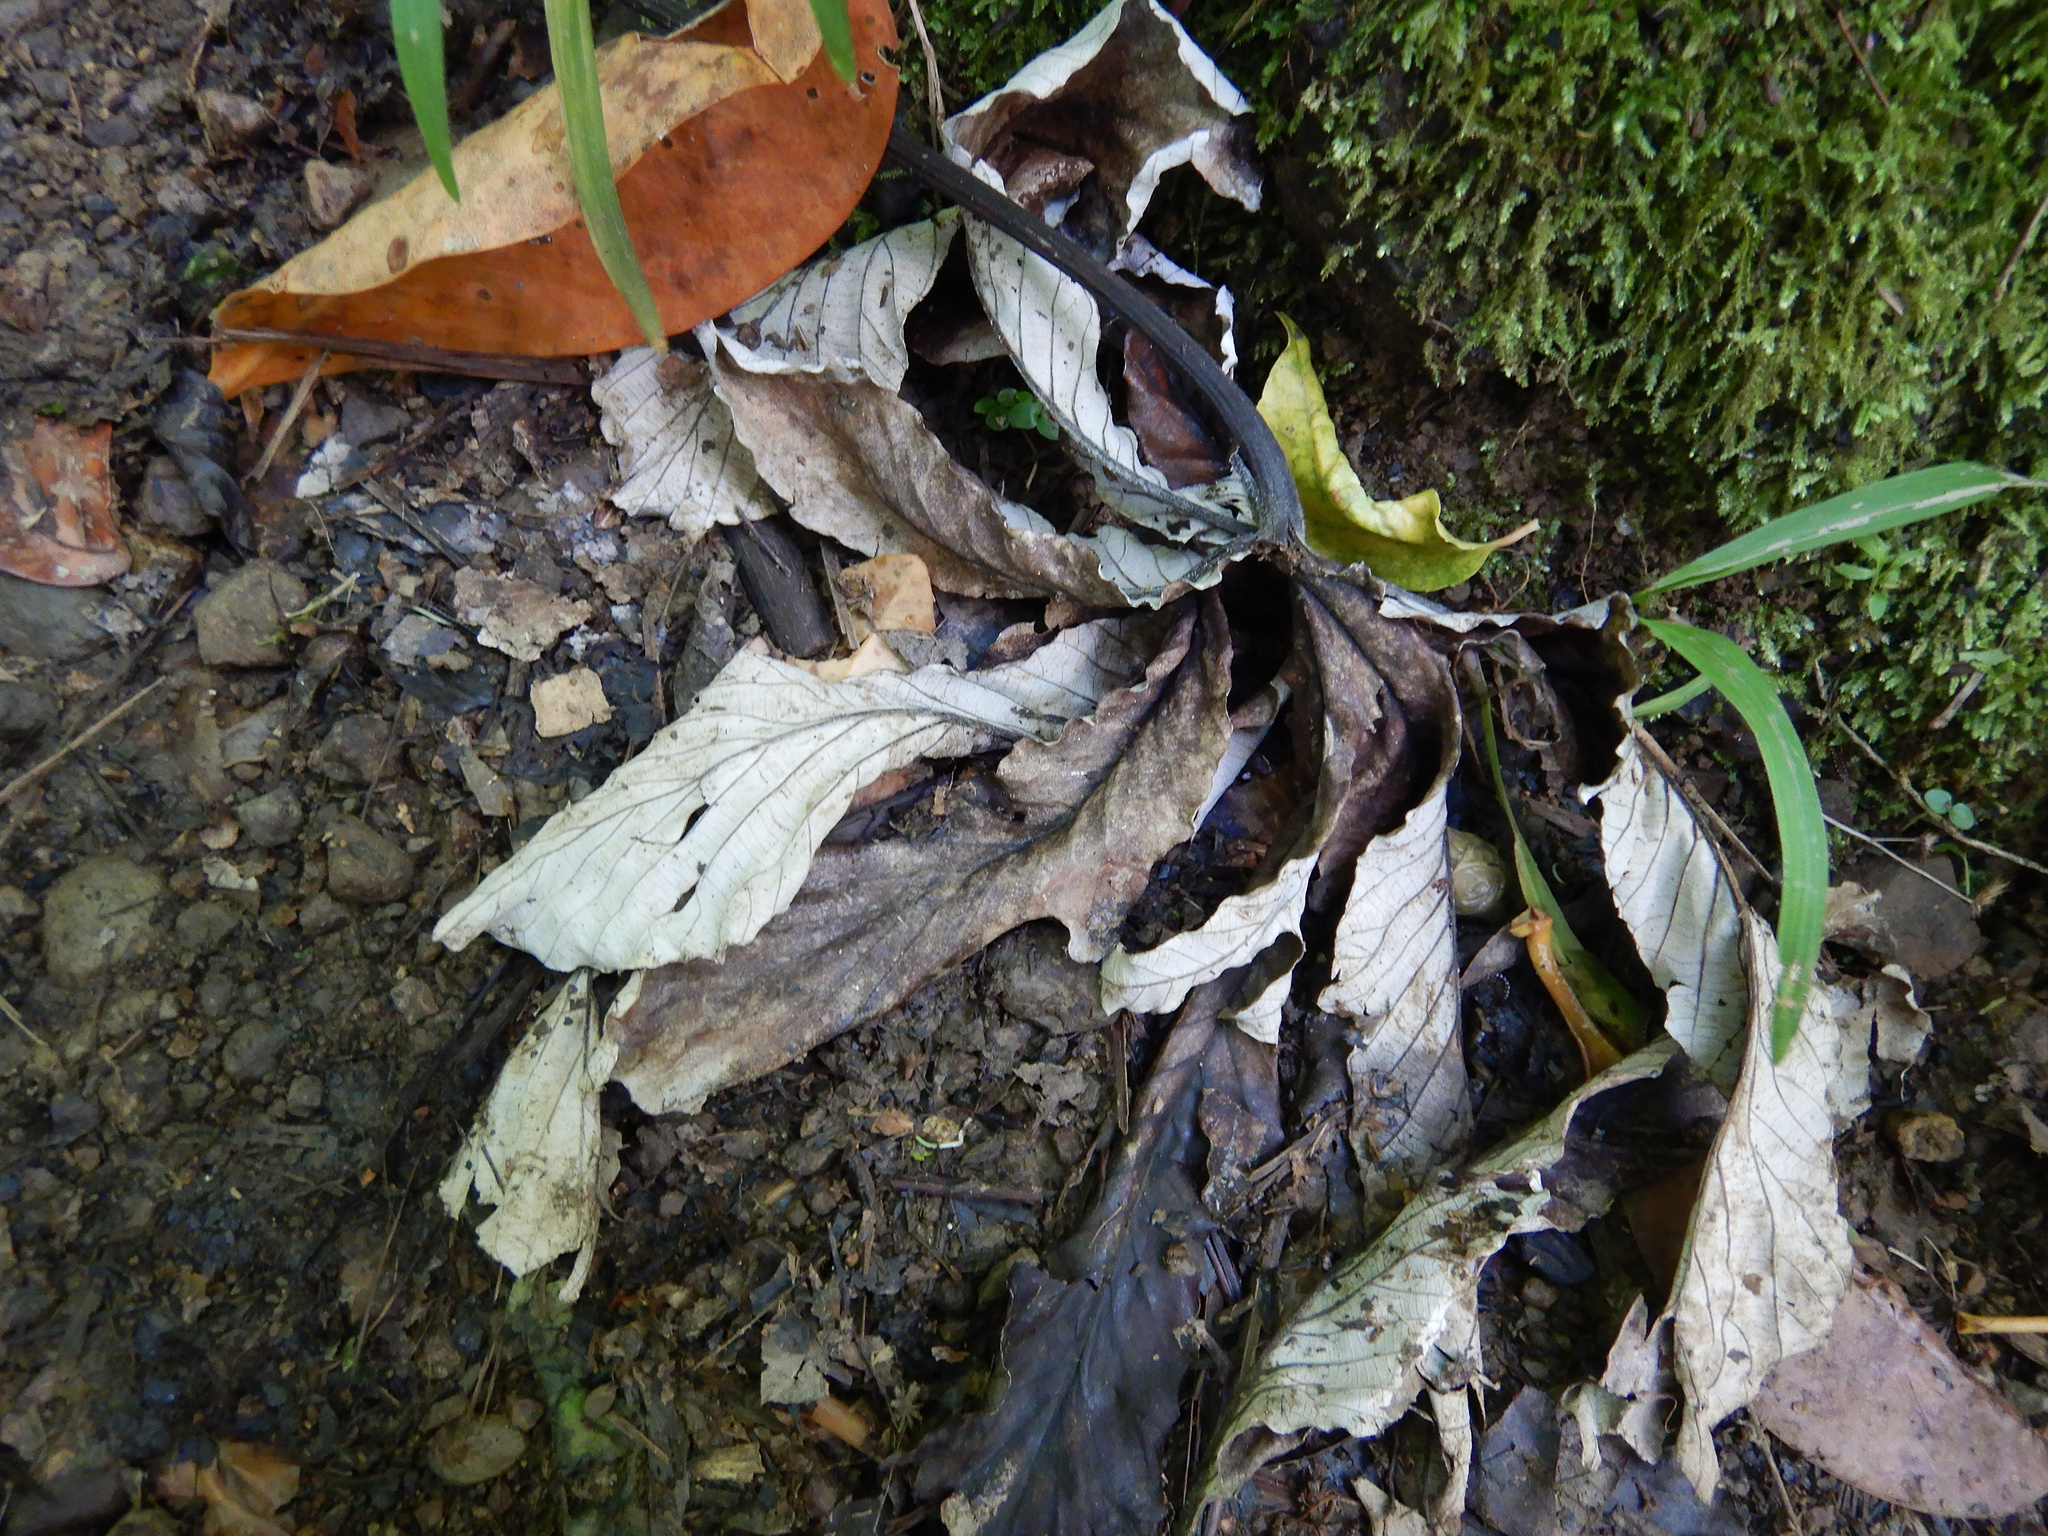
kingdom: Plantae
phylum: Tracheophyta
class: Magnoliopsida
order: Rosales
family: Urticaceae
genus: Cecropia
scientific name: Cecropia pachystachya
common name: Ambay pumpwood
